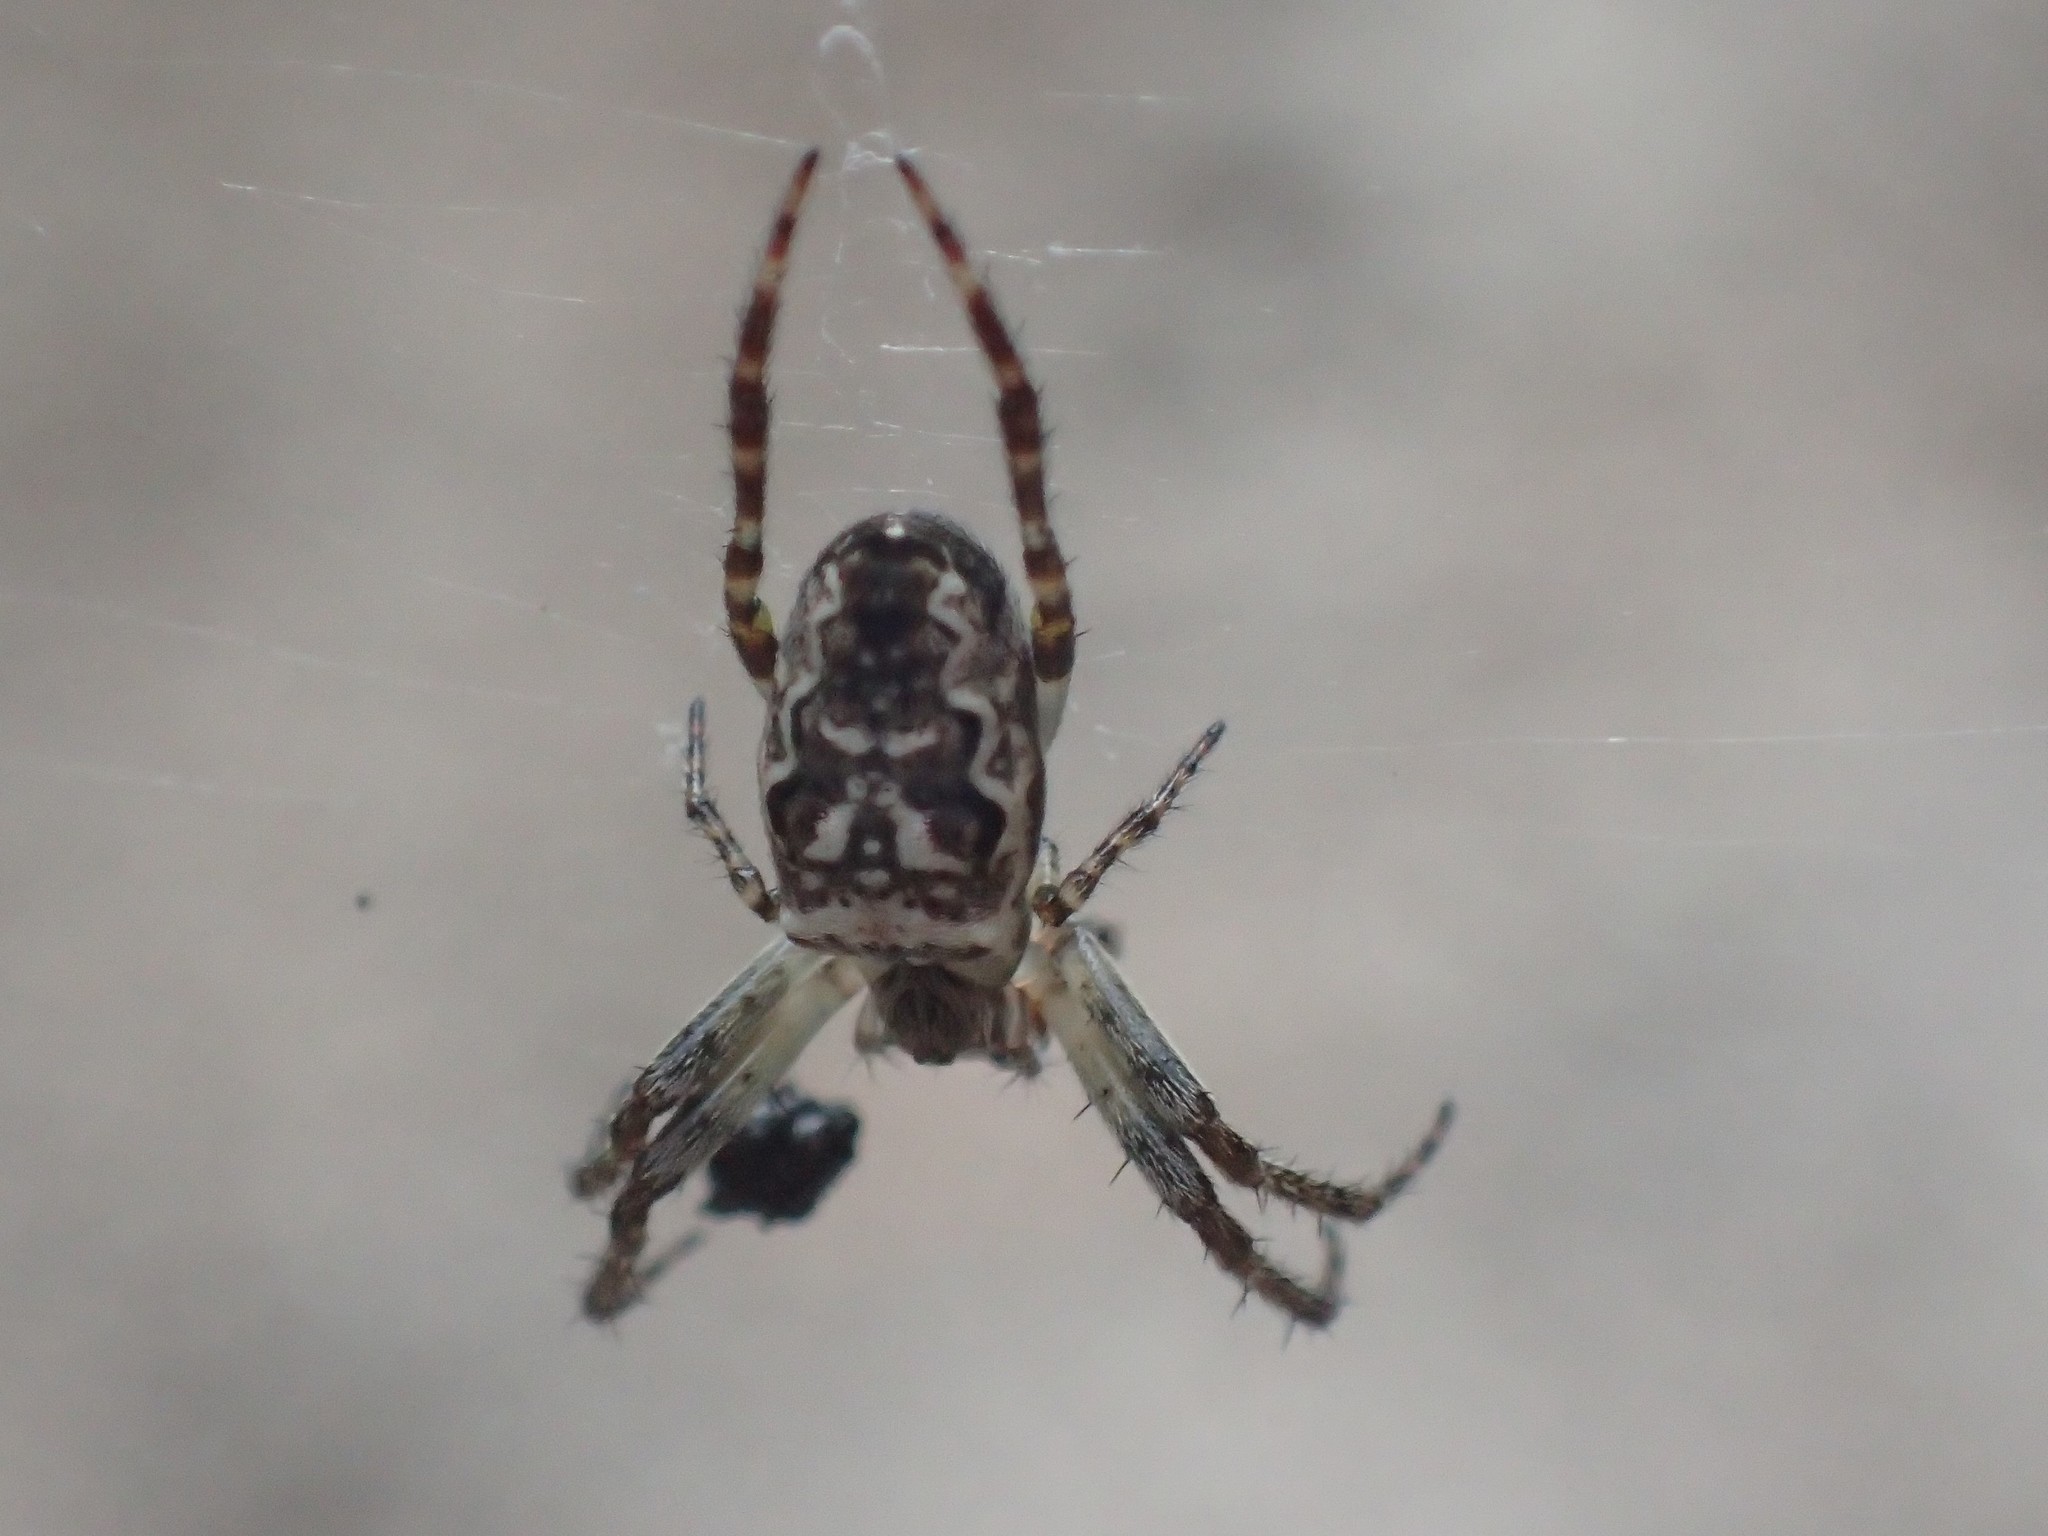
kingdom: Animalia
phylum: Arthropoda
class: Arachnida
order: Araneae
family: Araneidae
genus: Plebs
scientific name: Plebs eburnus
